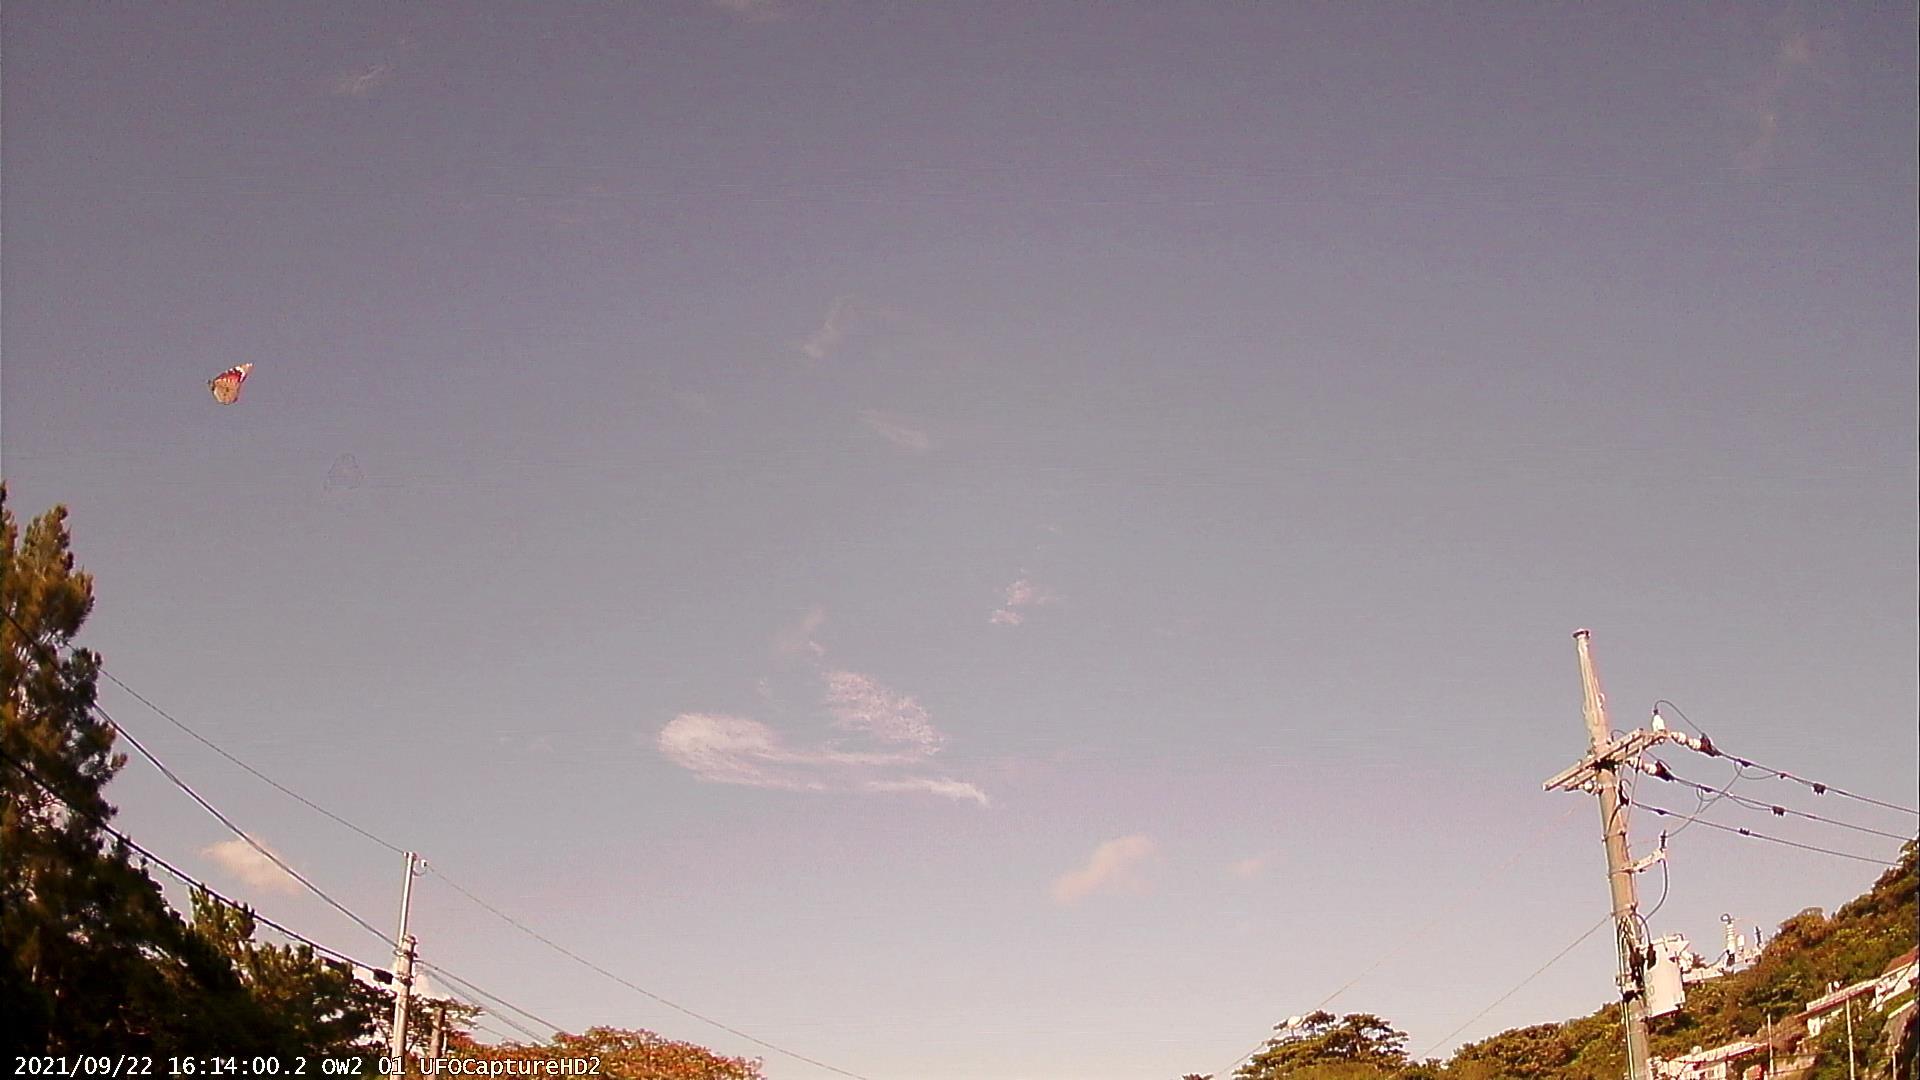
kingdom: Animalia
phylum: Arthropoda
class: Insecta
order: Lepidoptera
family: Nymphalidae
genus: Danaus
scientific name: Danaus chrysippus
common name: Plain tiger
